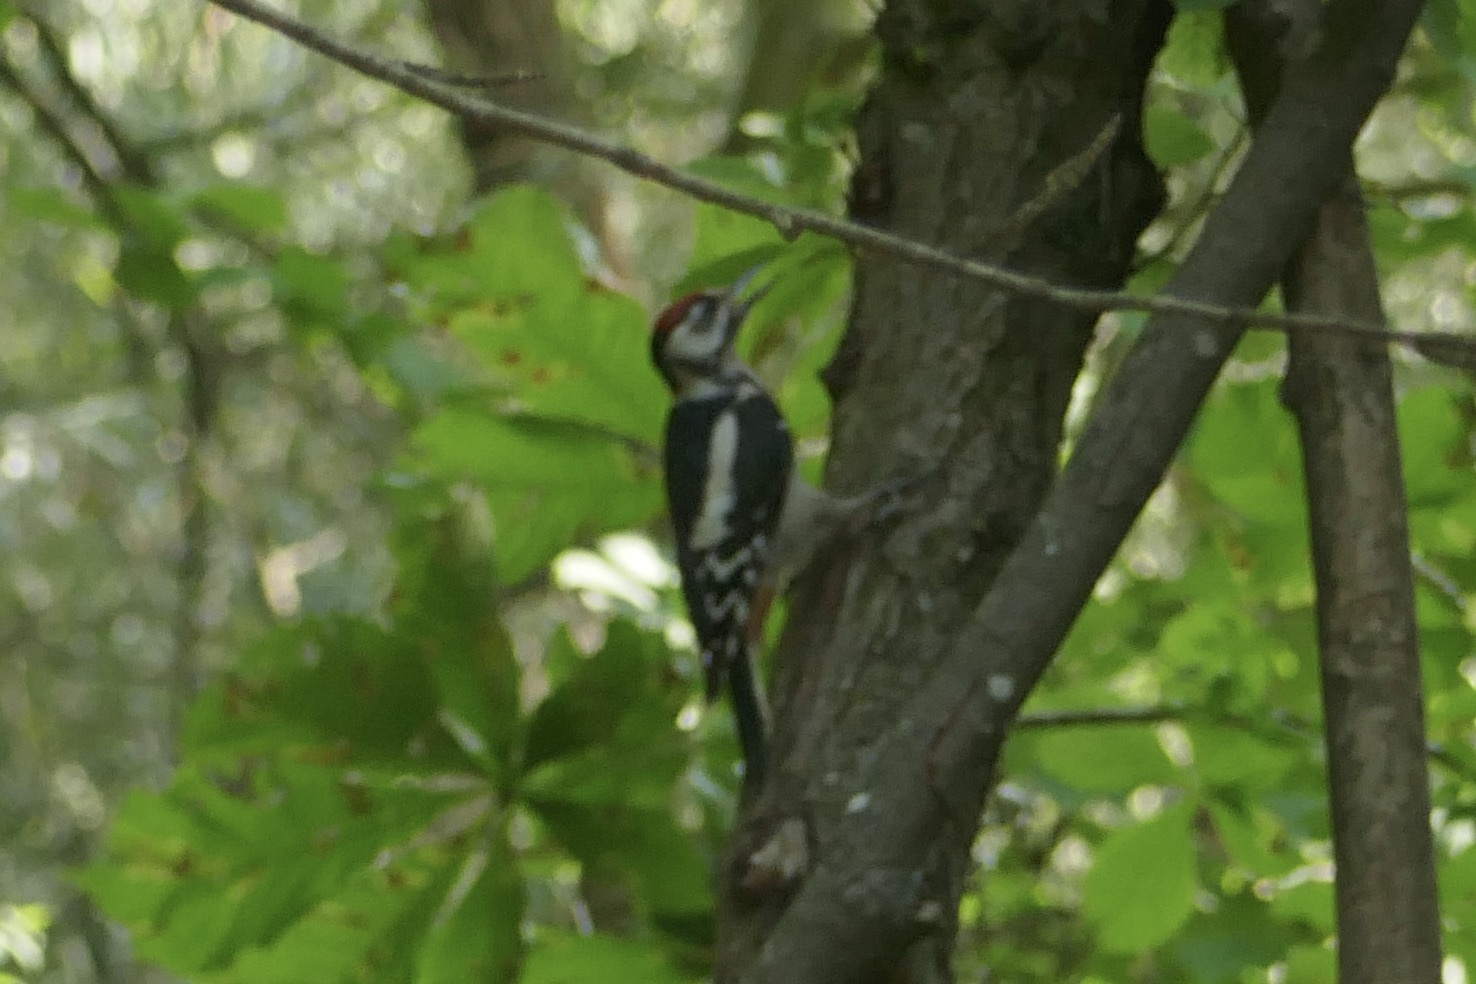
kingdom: Animalia
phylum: Chordata
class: Aves
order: Piciformes
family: Picidae
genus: Dendrocopos
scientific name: Dendrocopos major
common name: Great spotted woodpecker
